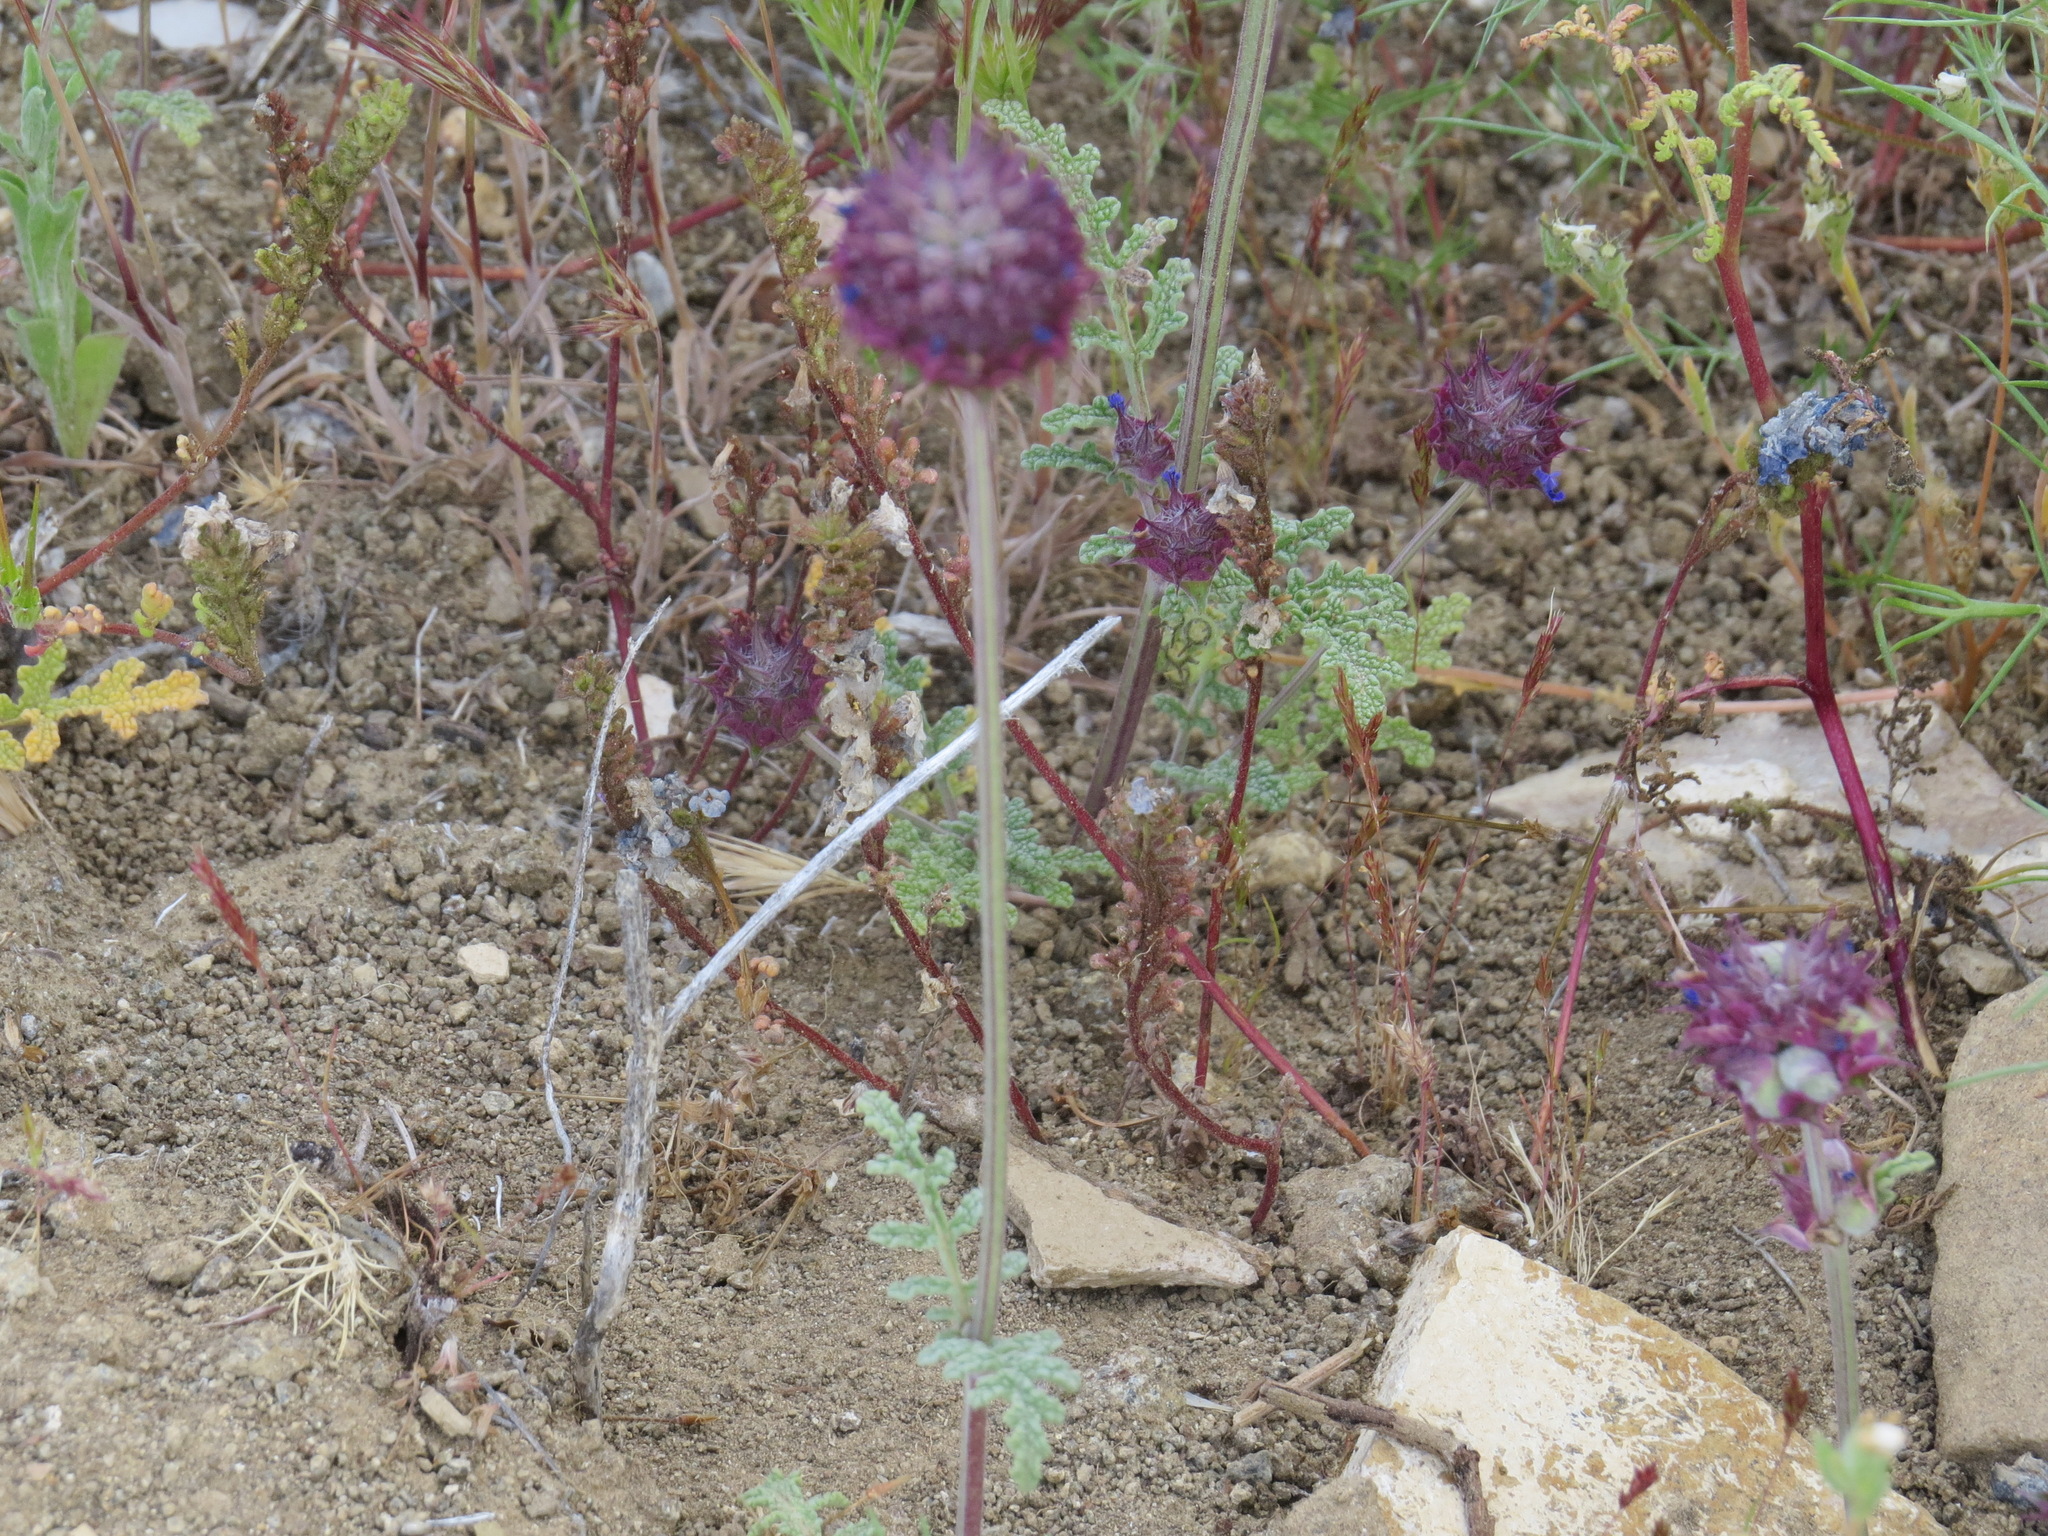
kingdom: Plantae
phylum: Tracheophyta
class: Magnoliopsida
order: Lamiales
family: Lamiaceae
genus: Salvia
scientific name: Salvia columbariae
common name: Chia
